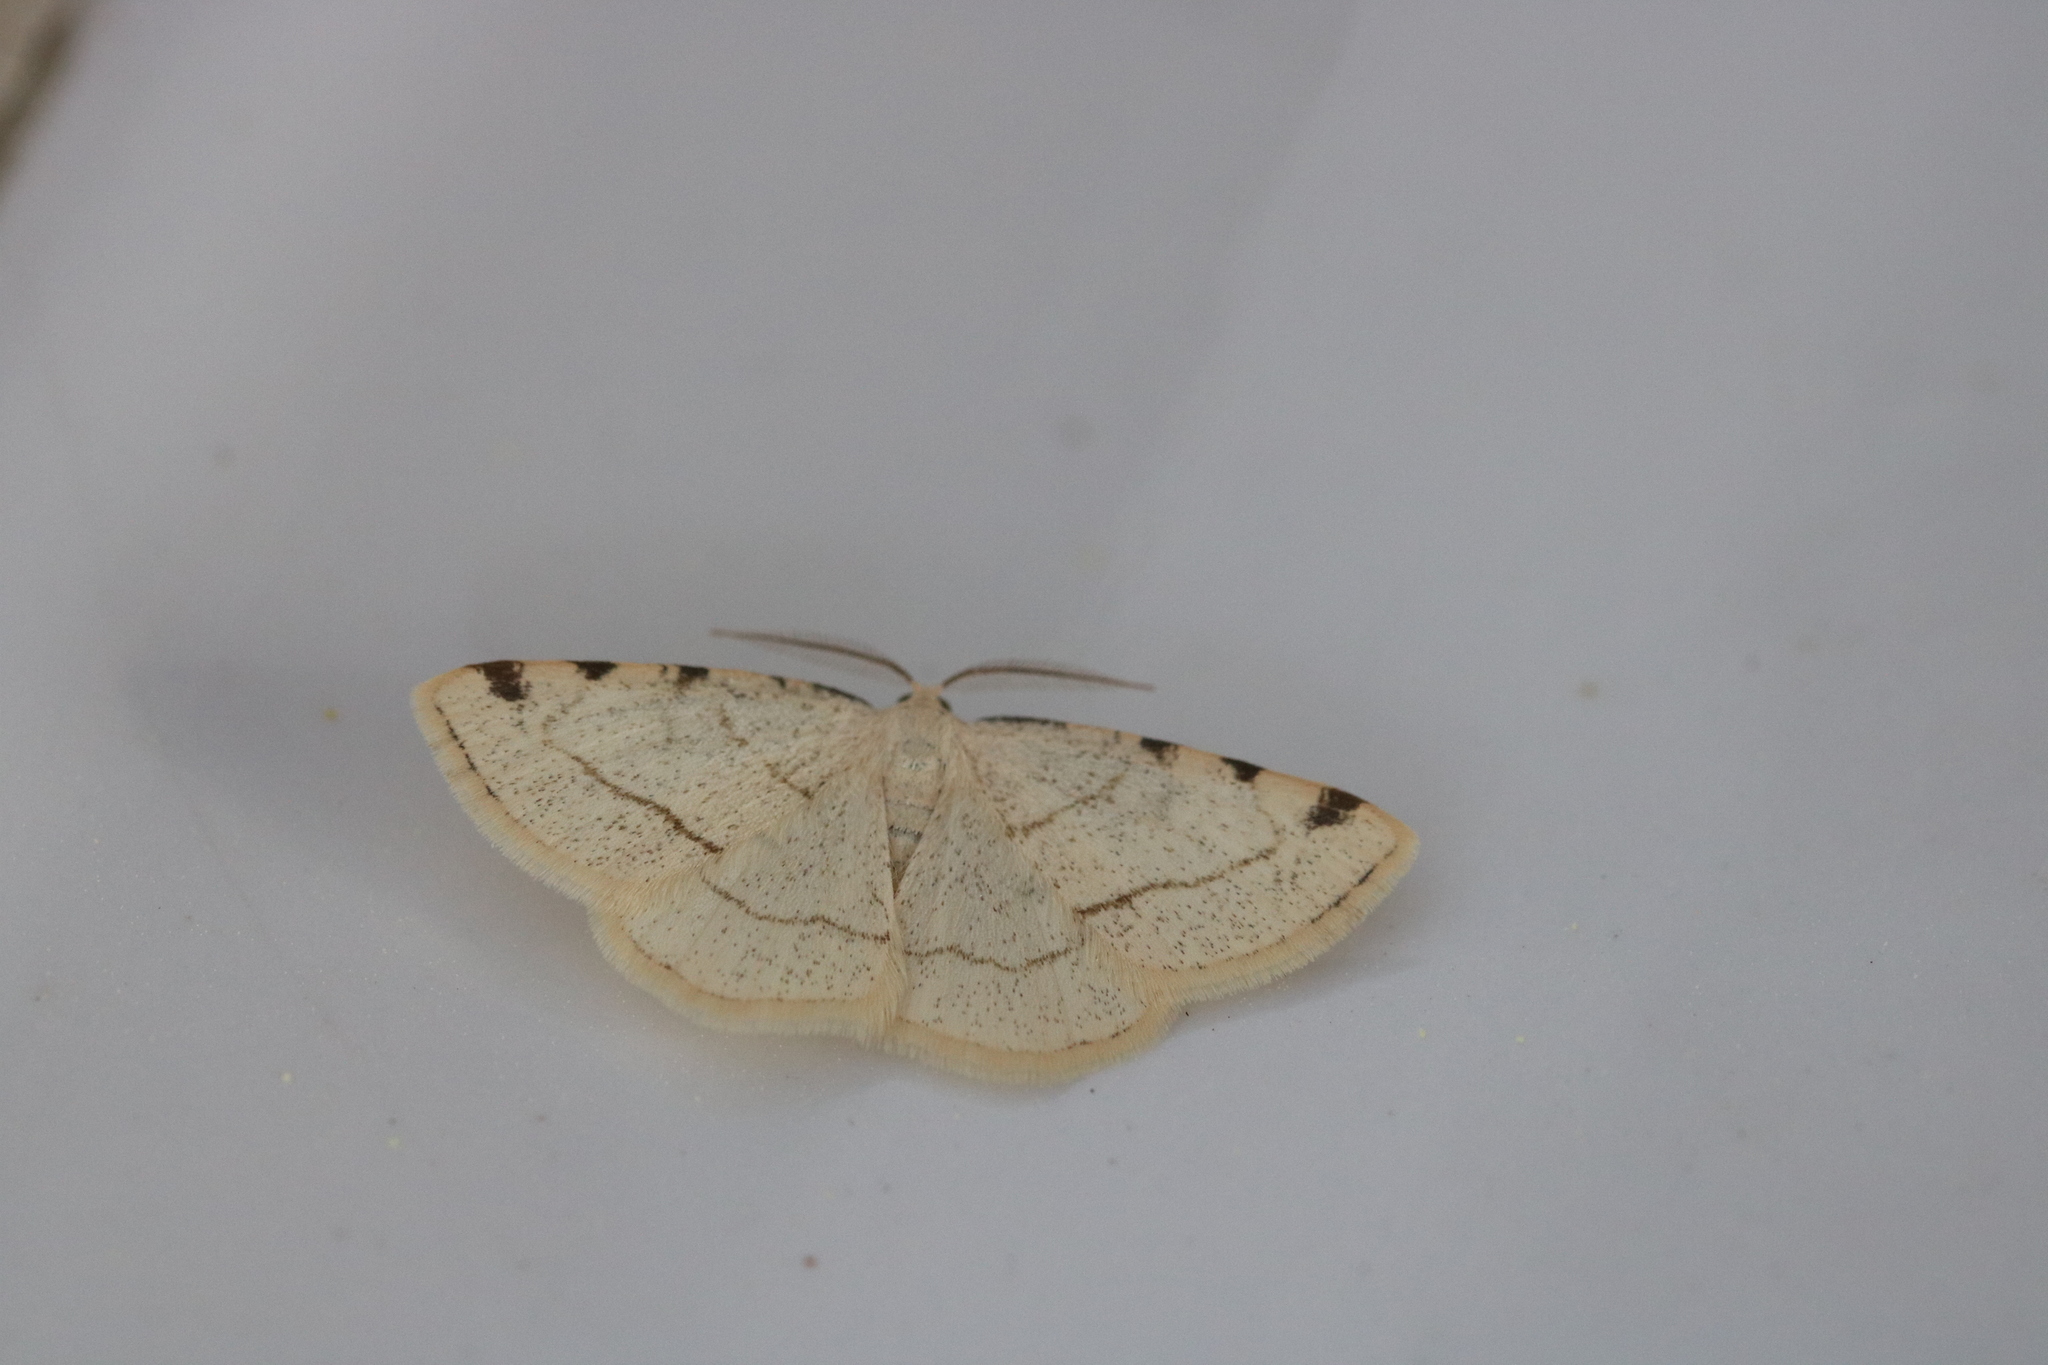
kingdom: Animalia
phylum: Arthropoda
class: Insecta
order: Lepidoptera
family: Geometridae
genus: Stegania
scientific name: Stegania trimaculata
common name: Dorset cream wave
